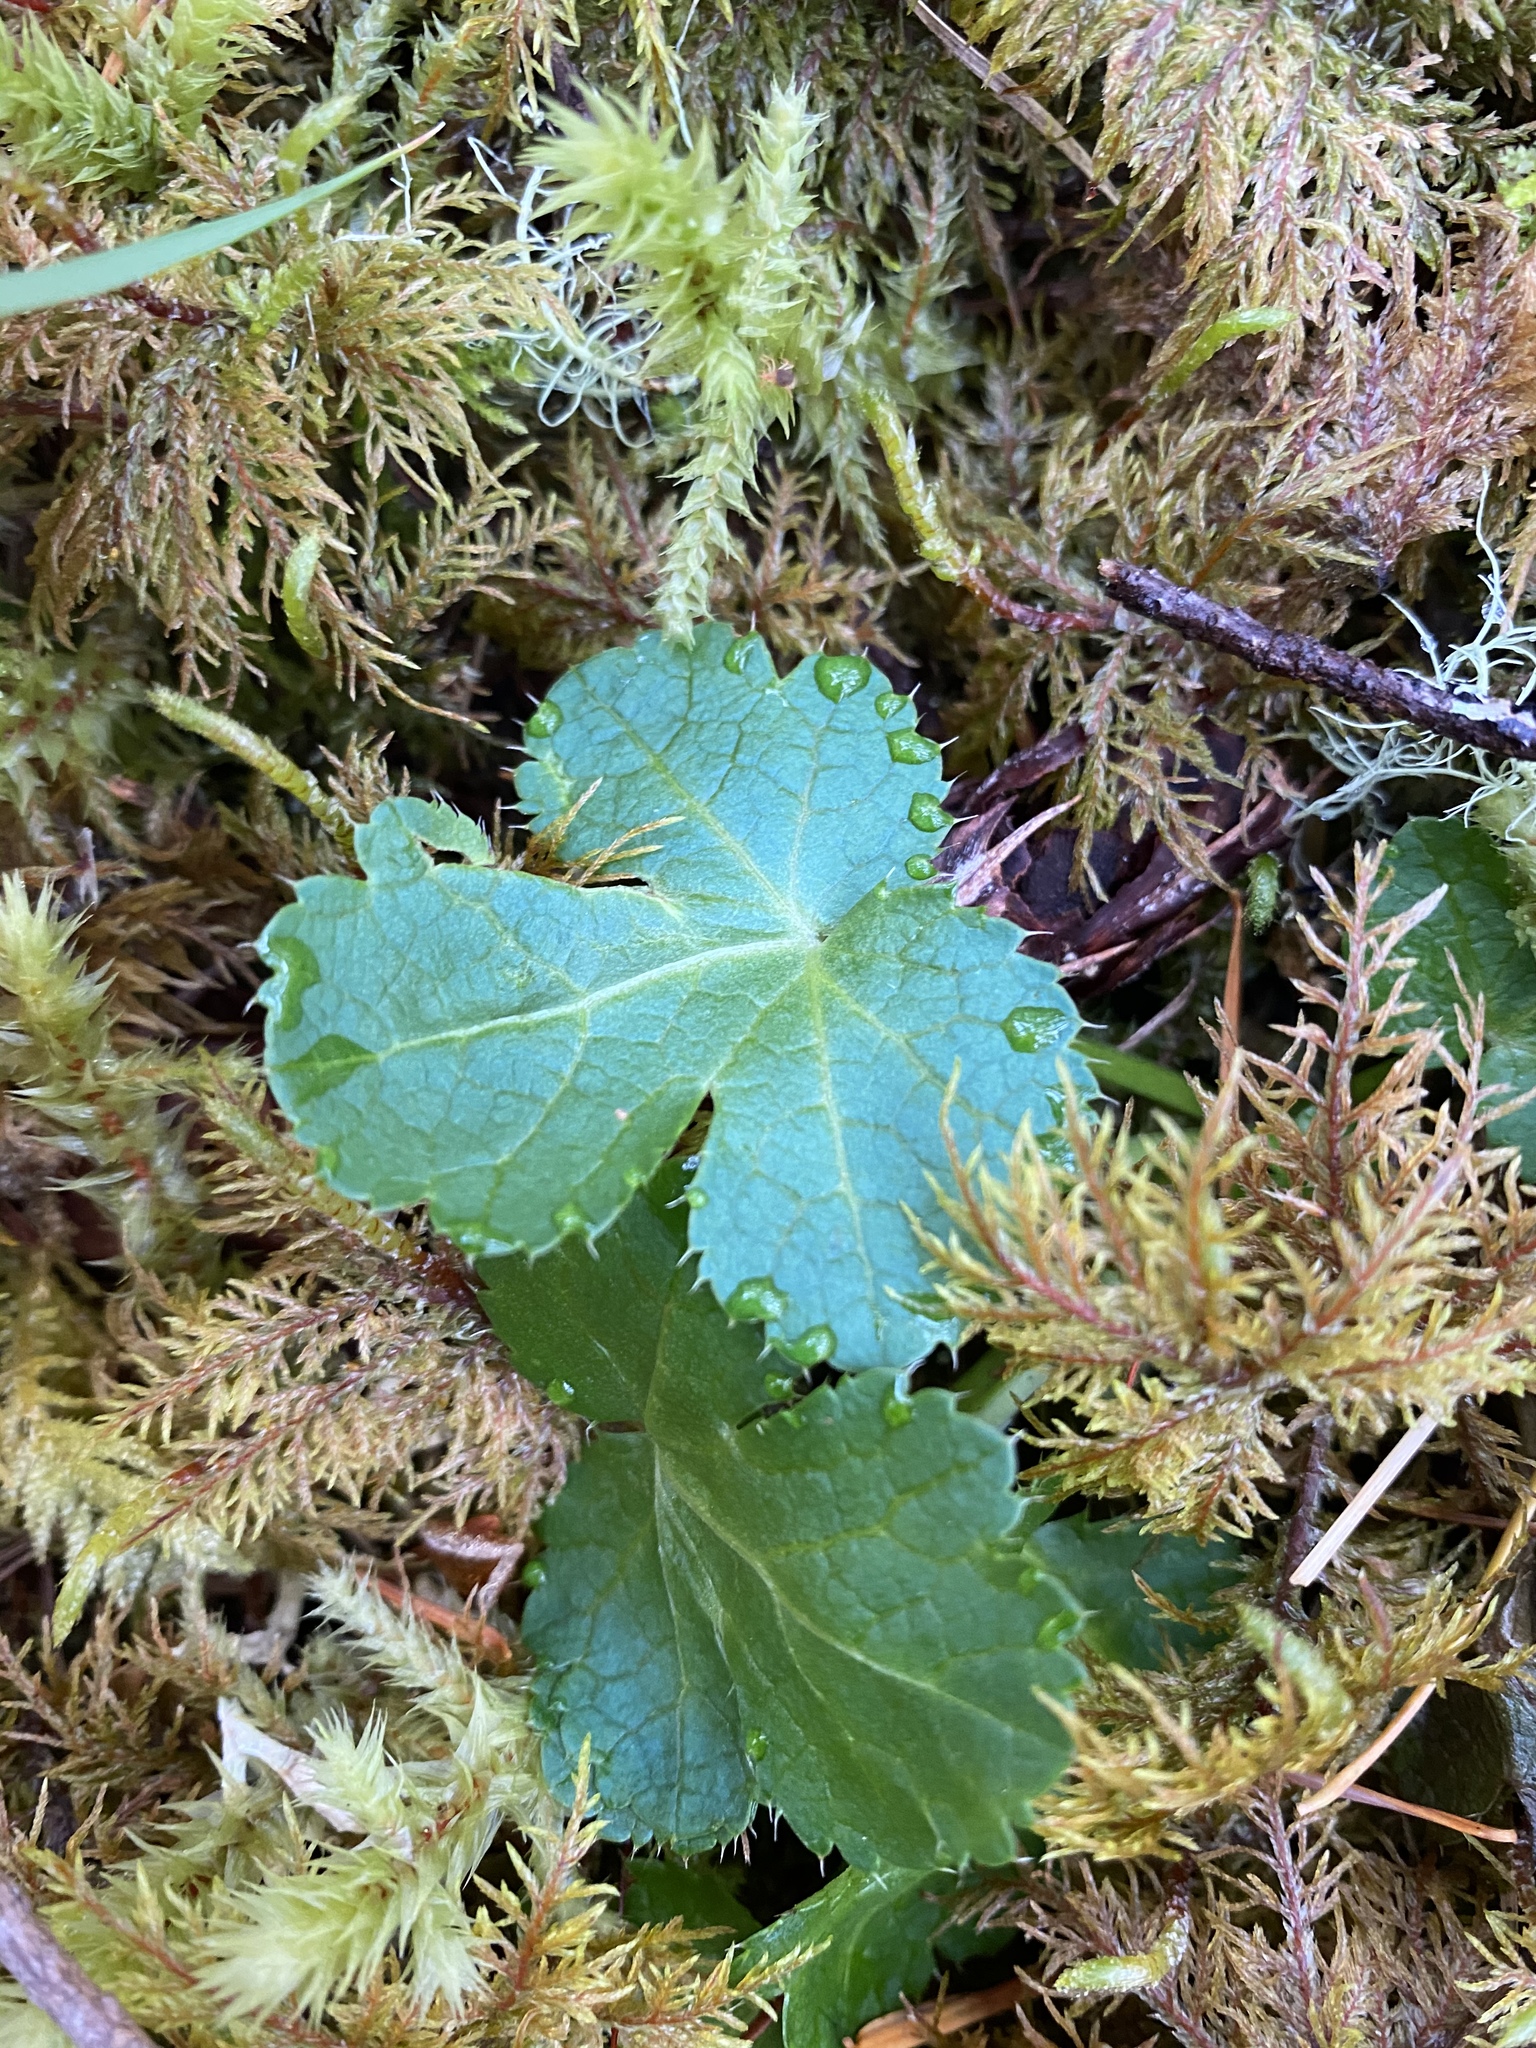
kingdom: Plantae
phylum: Tracheophyta
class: Magnoliopsida
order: Apiales
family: Apiaceae
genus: Sanicula
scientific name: Sanicula crassicaulis
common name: Western snakeroot
